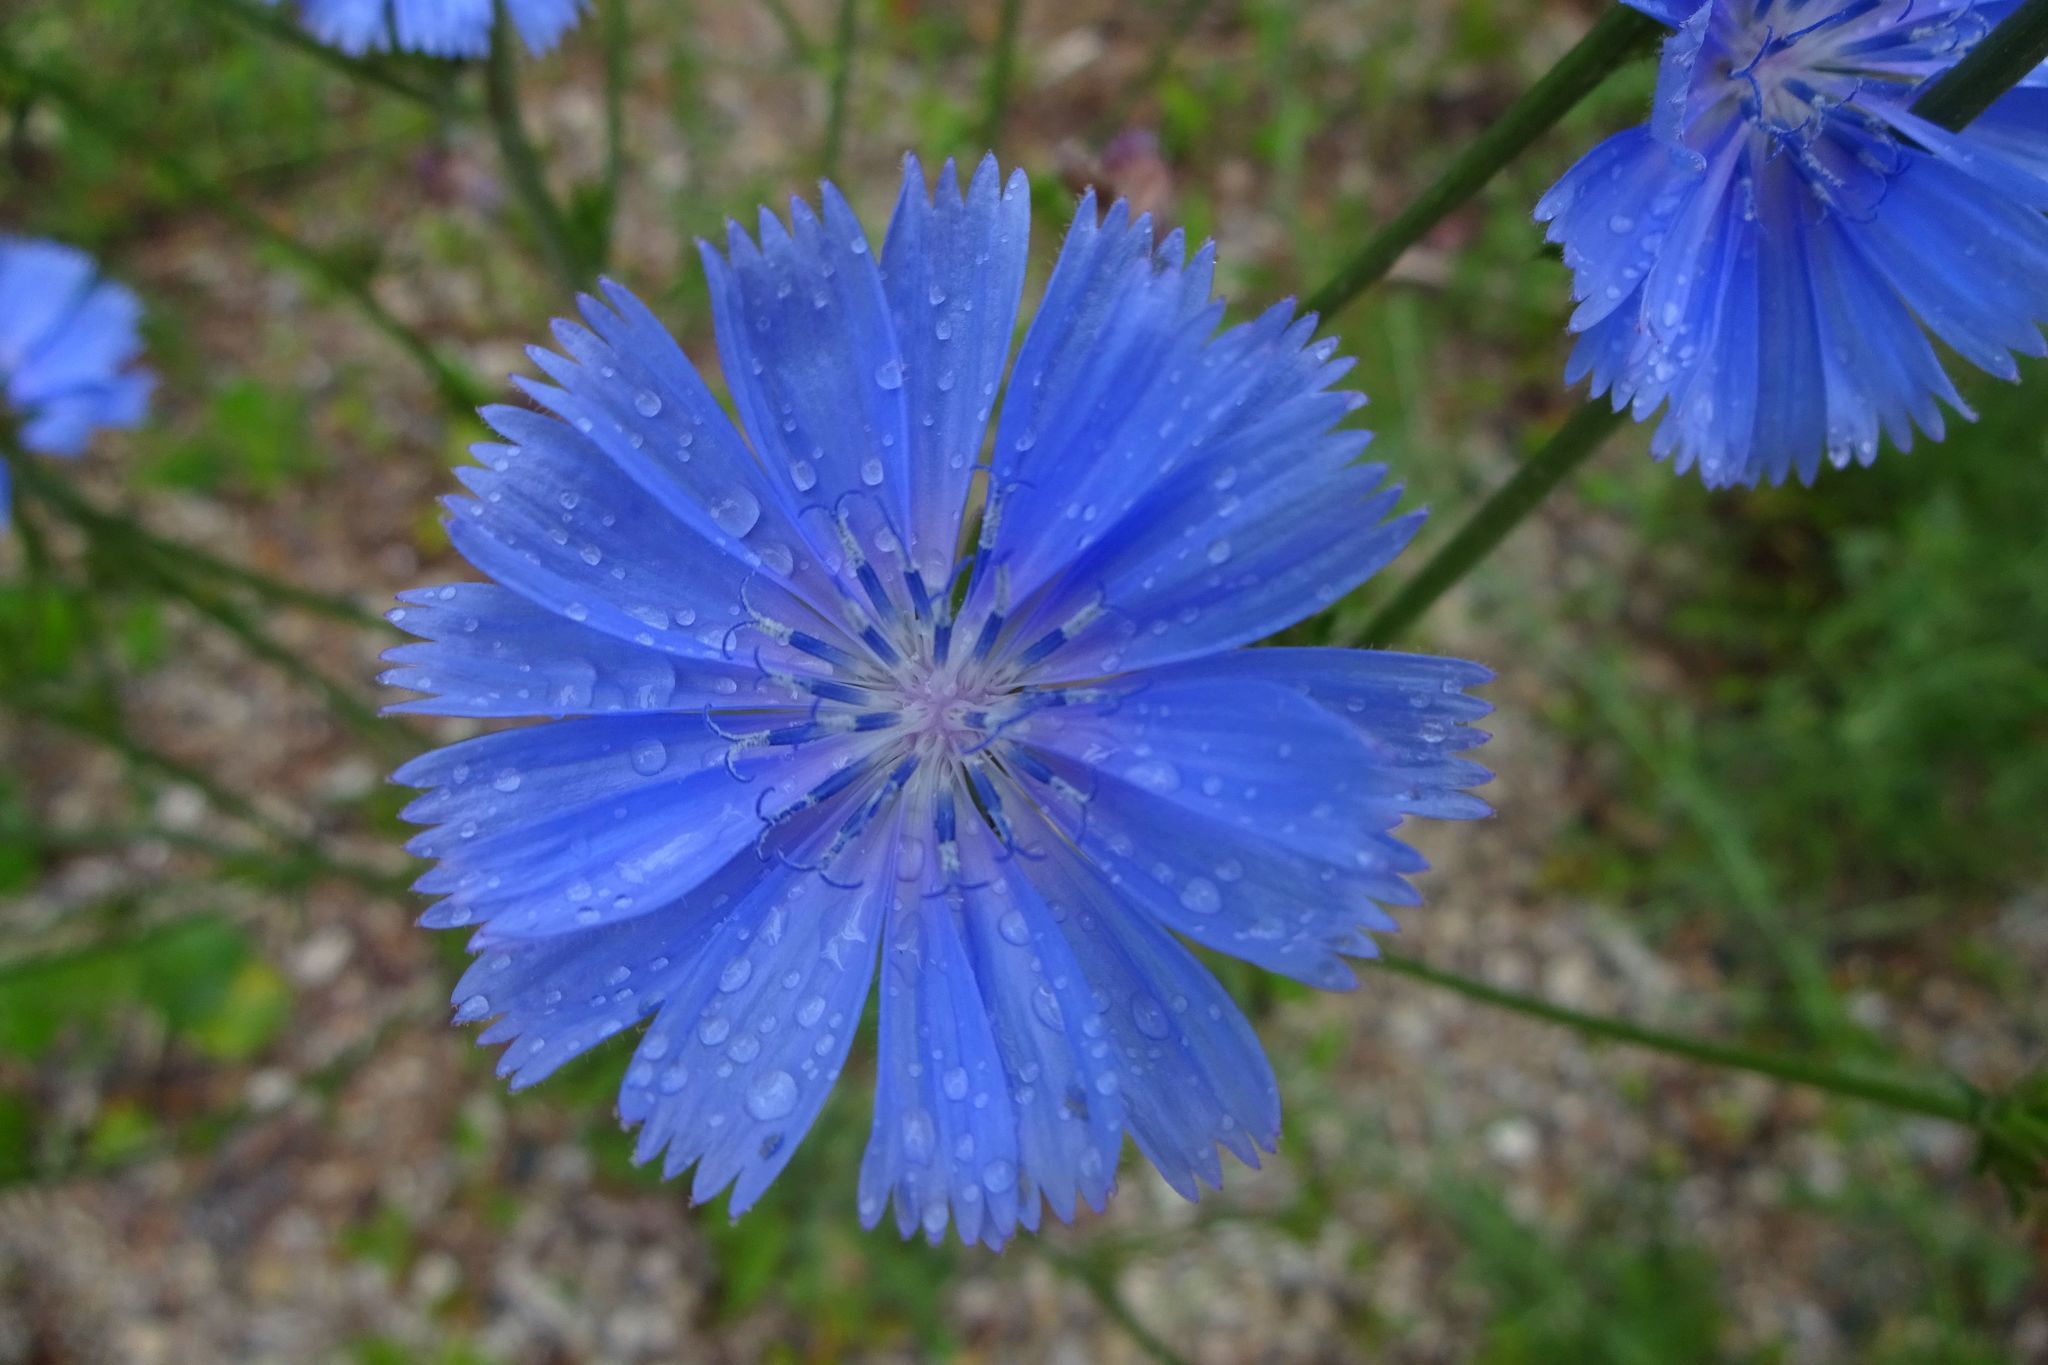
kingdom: Plantae
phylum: Tracheophyta
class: Magnoliopsida
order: Asterales
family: Asteraceae
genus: Cichorium
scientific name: Cichorium intybus
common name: Chicory
